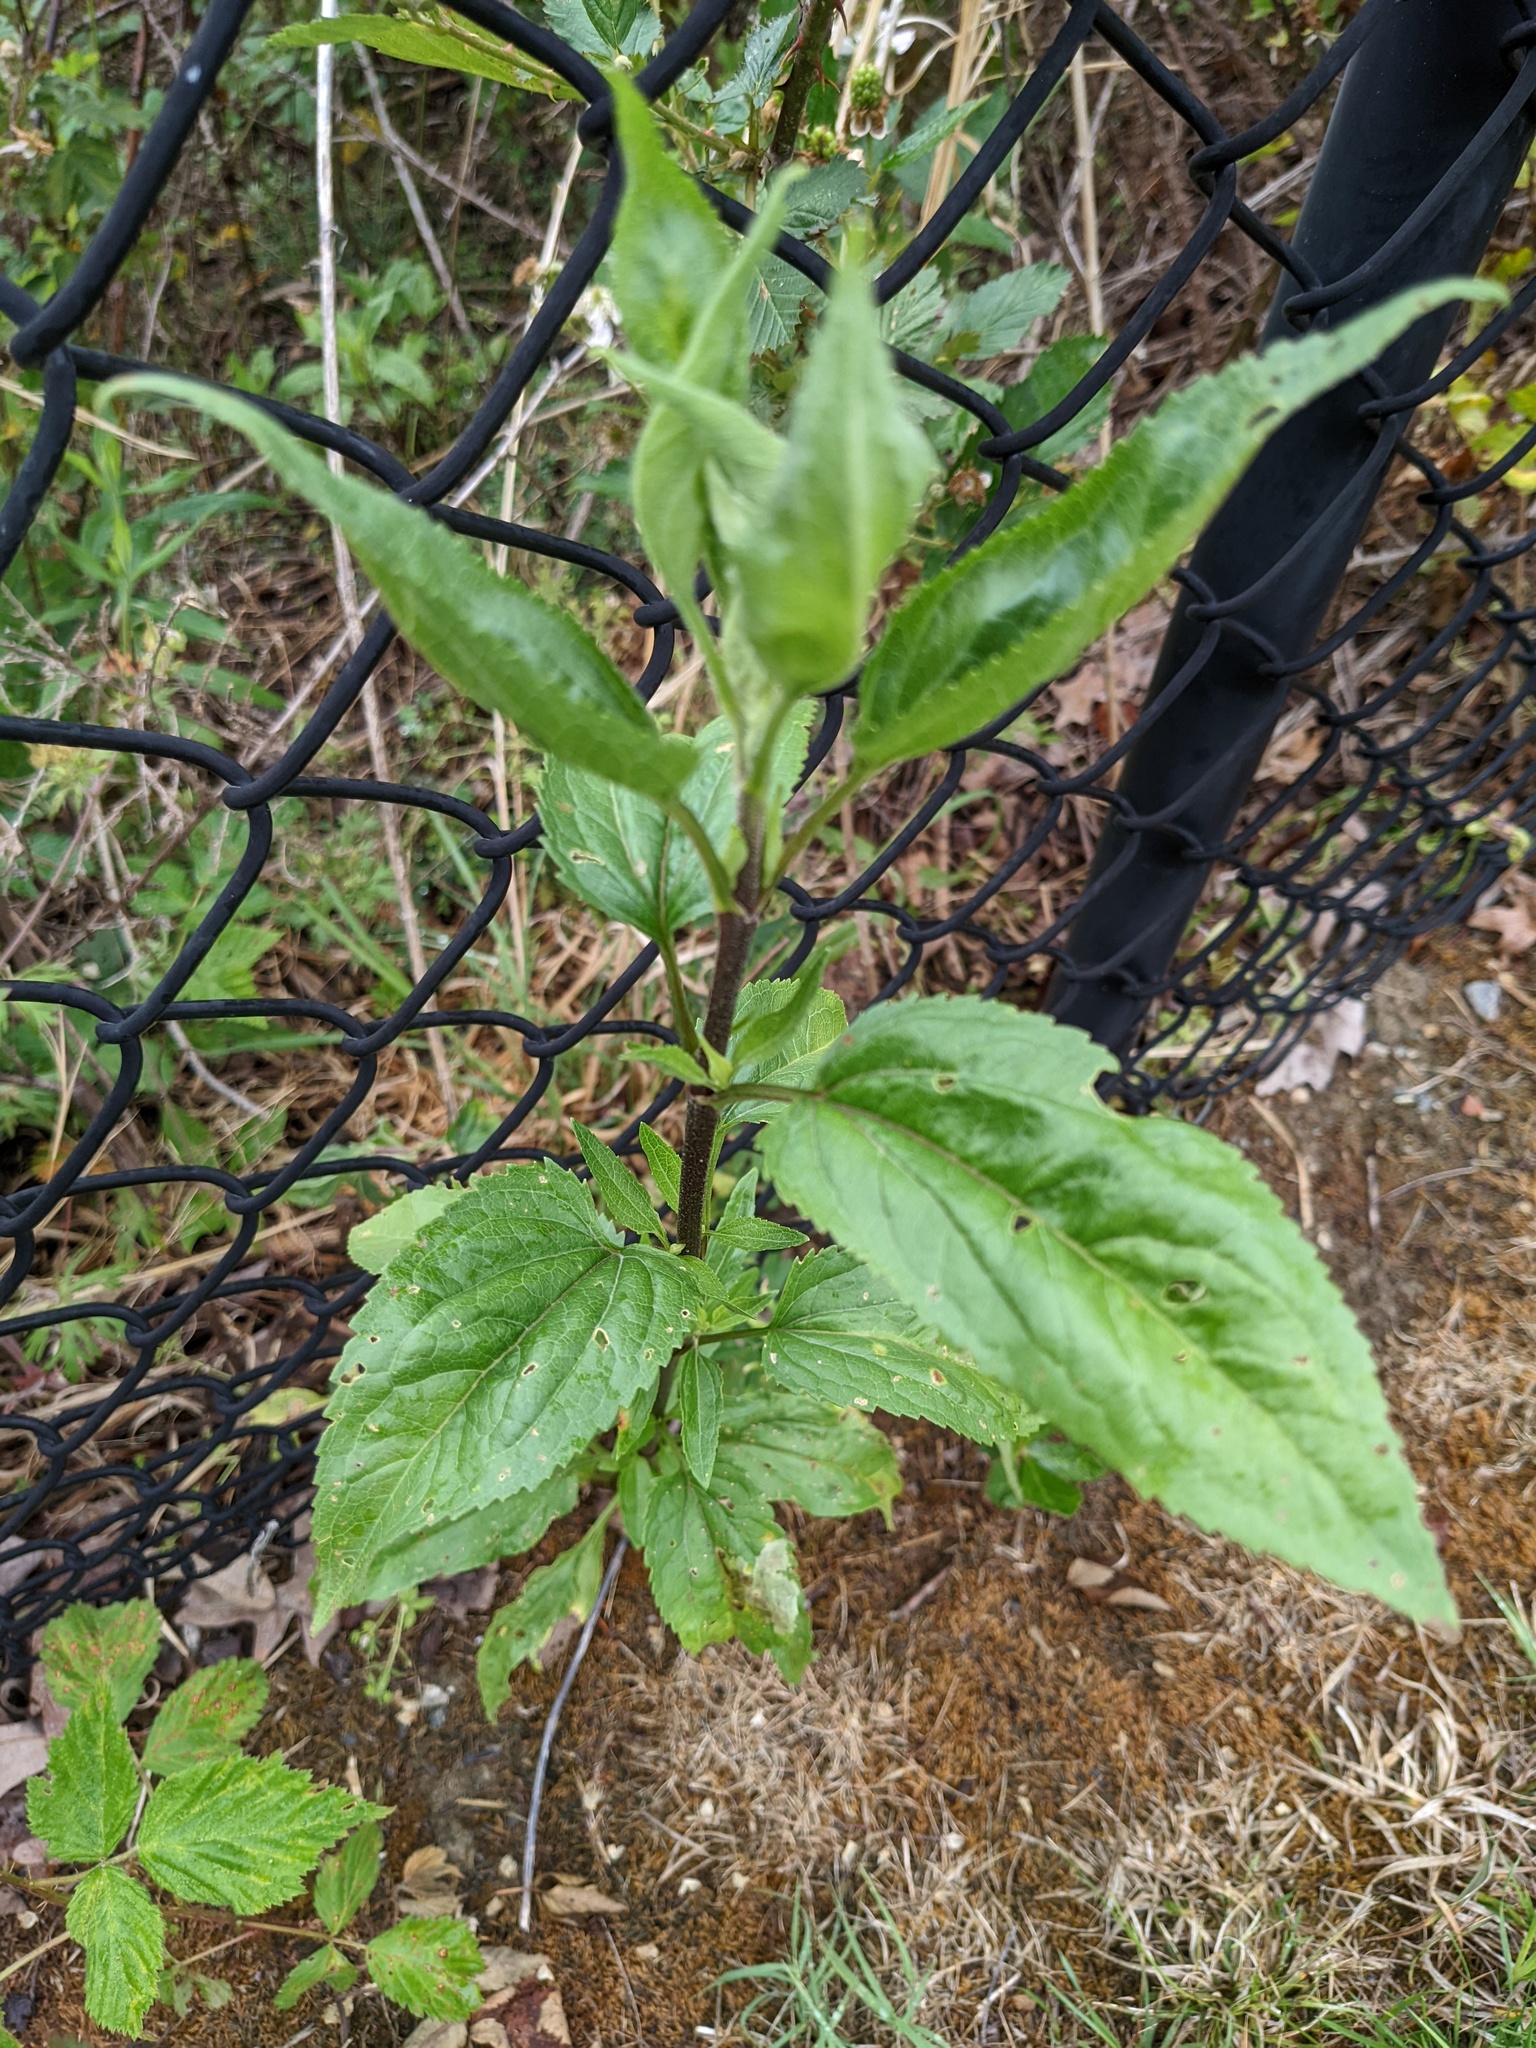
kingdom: Plantae
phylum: Tracheophyta
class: Magnoliopsida
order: Asterales
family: Asteraceae
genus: Eupatorium
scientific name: Eupatorium serotinum
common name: Late boneset
